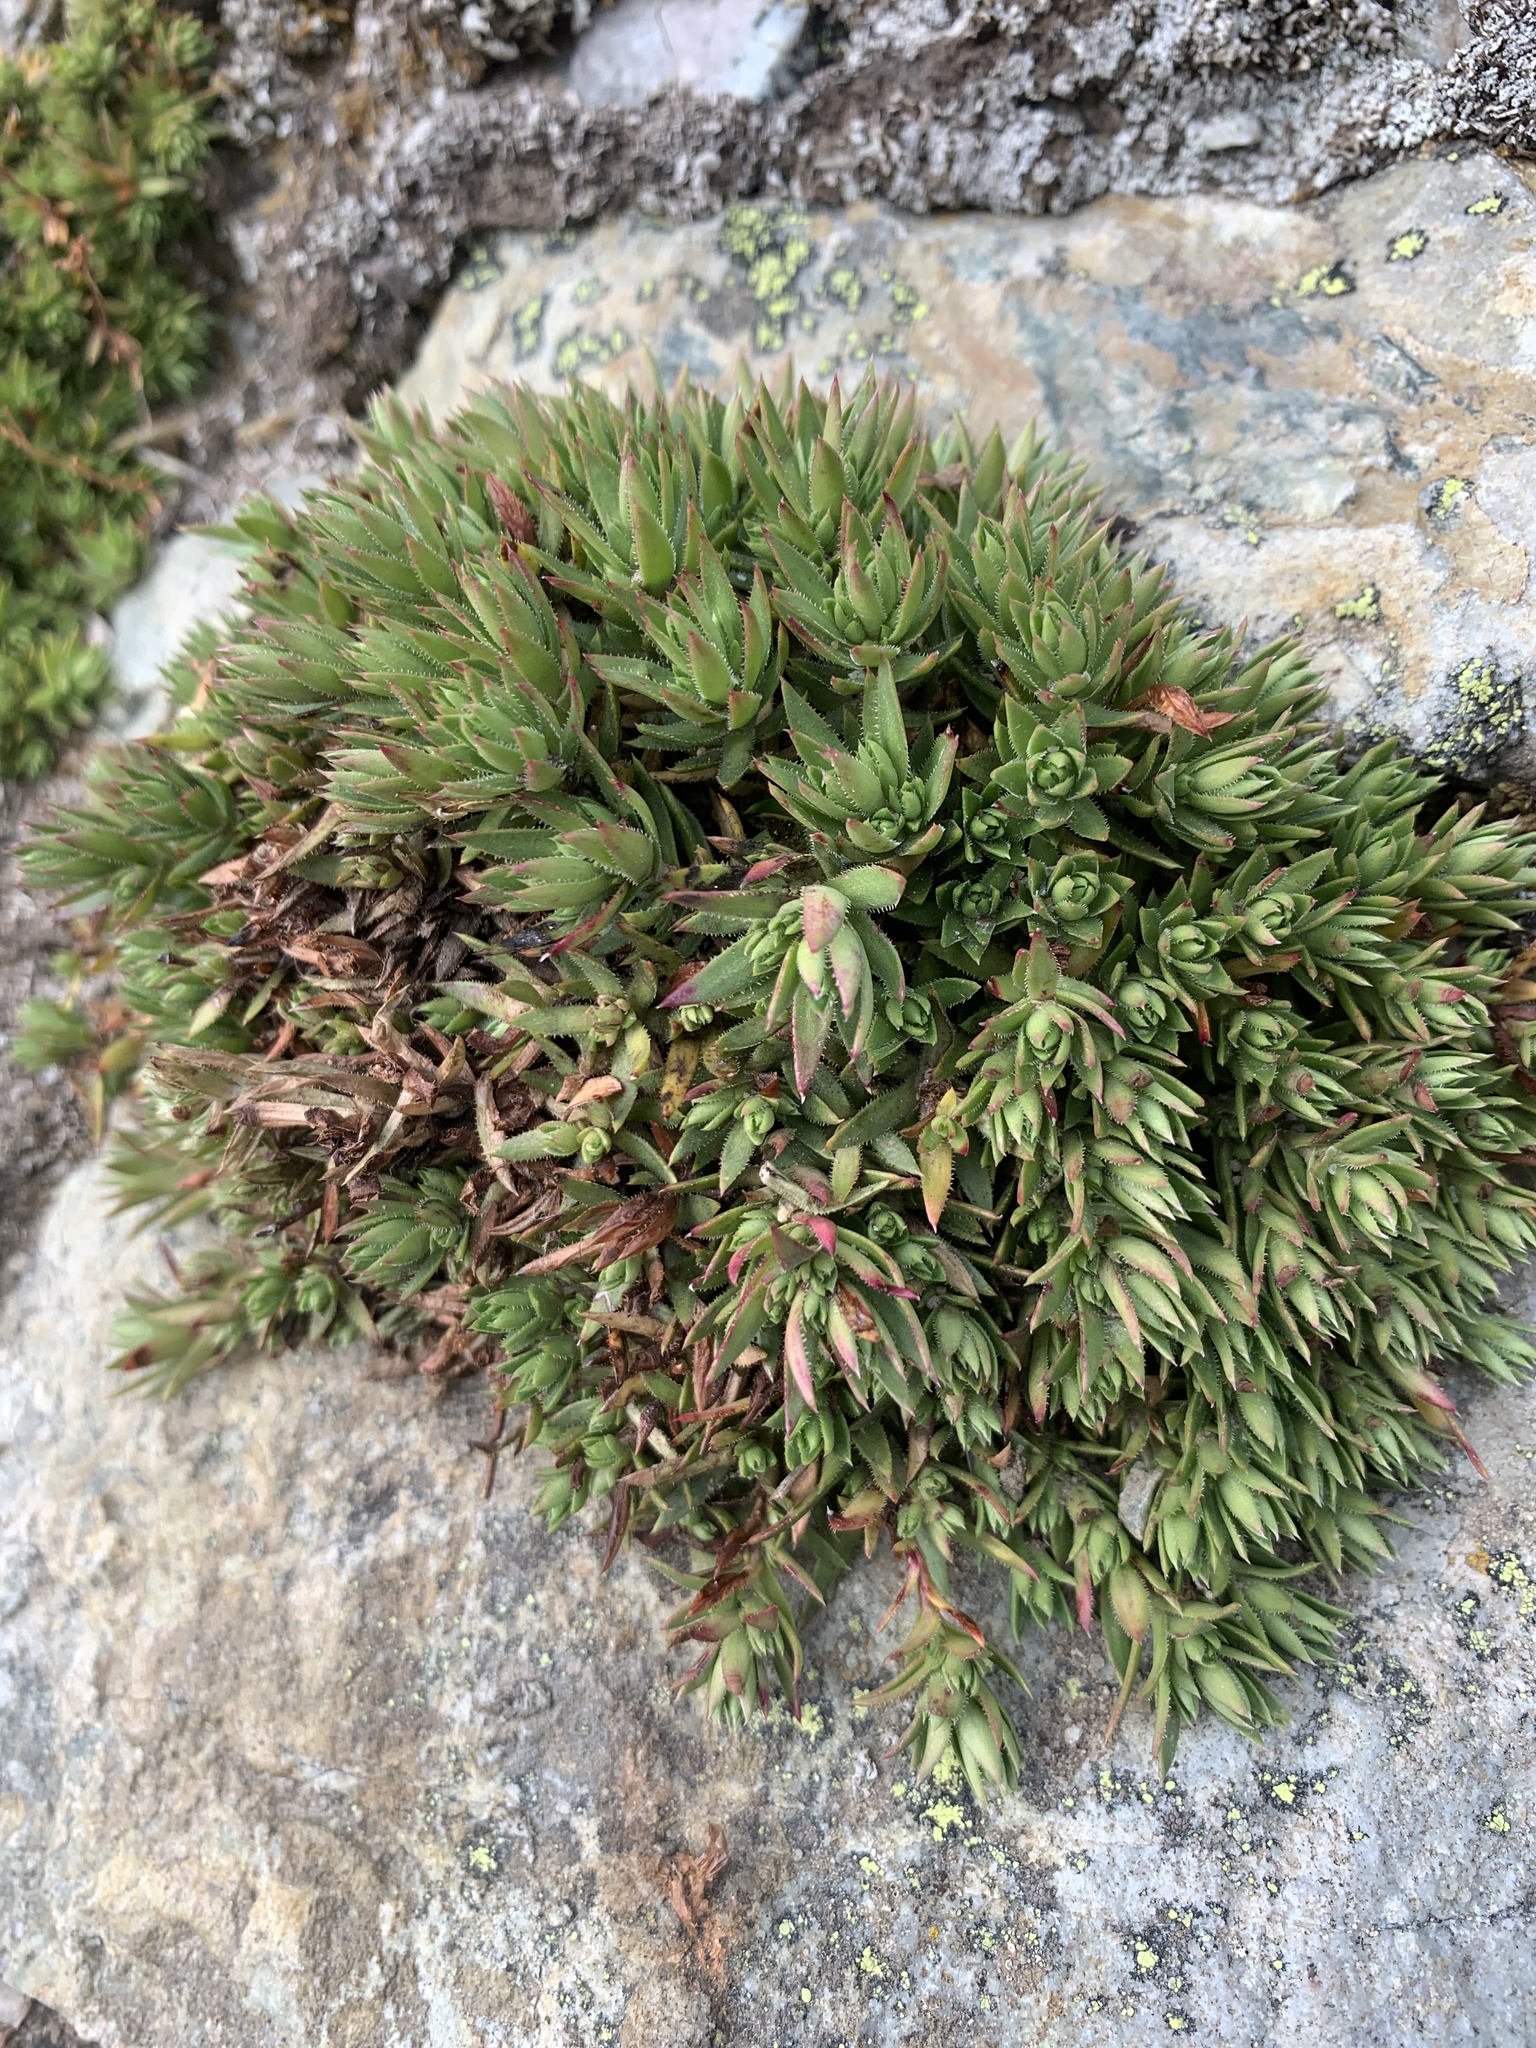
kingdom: Plantae
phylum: Tracheophyta
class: Magnoliopsida
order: Saxifragales
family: Saxifragaceae
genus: Saxifraga
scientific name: Saxifraga bronchialis
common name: Matted saxifrage
